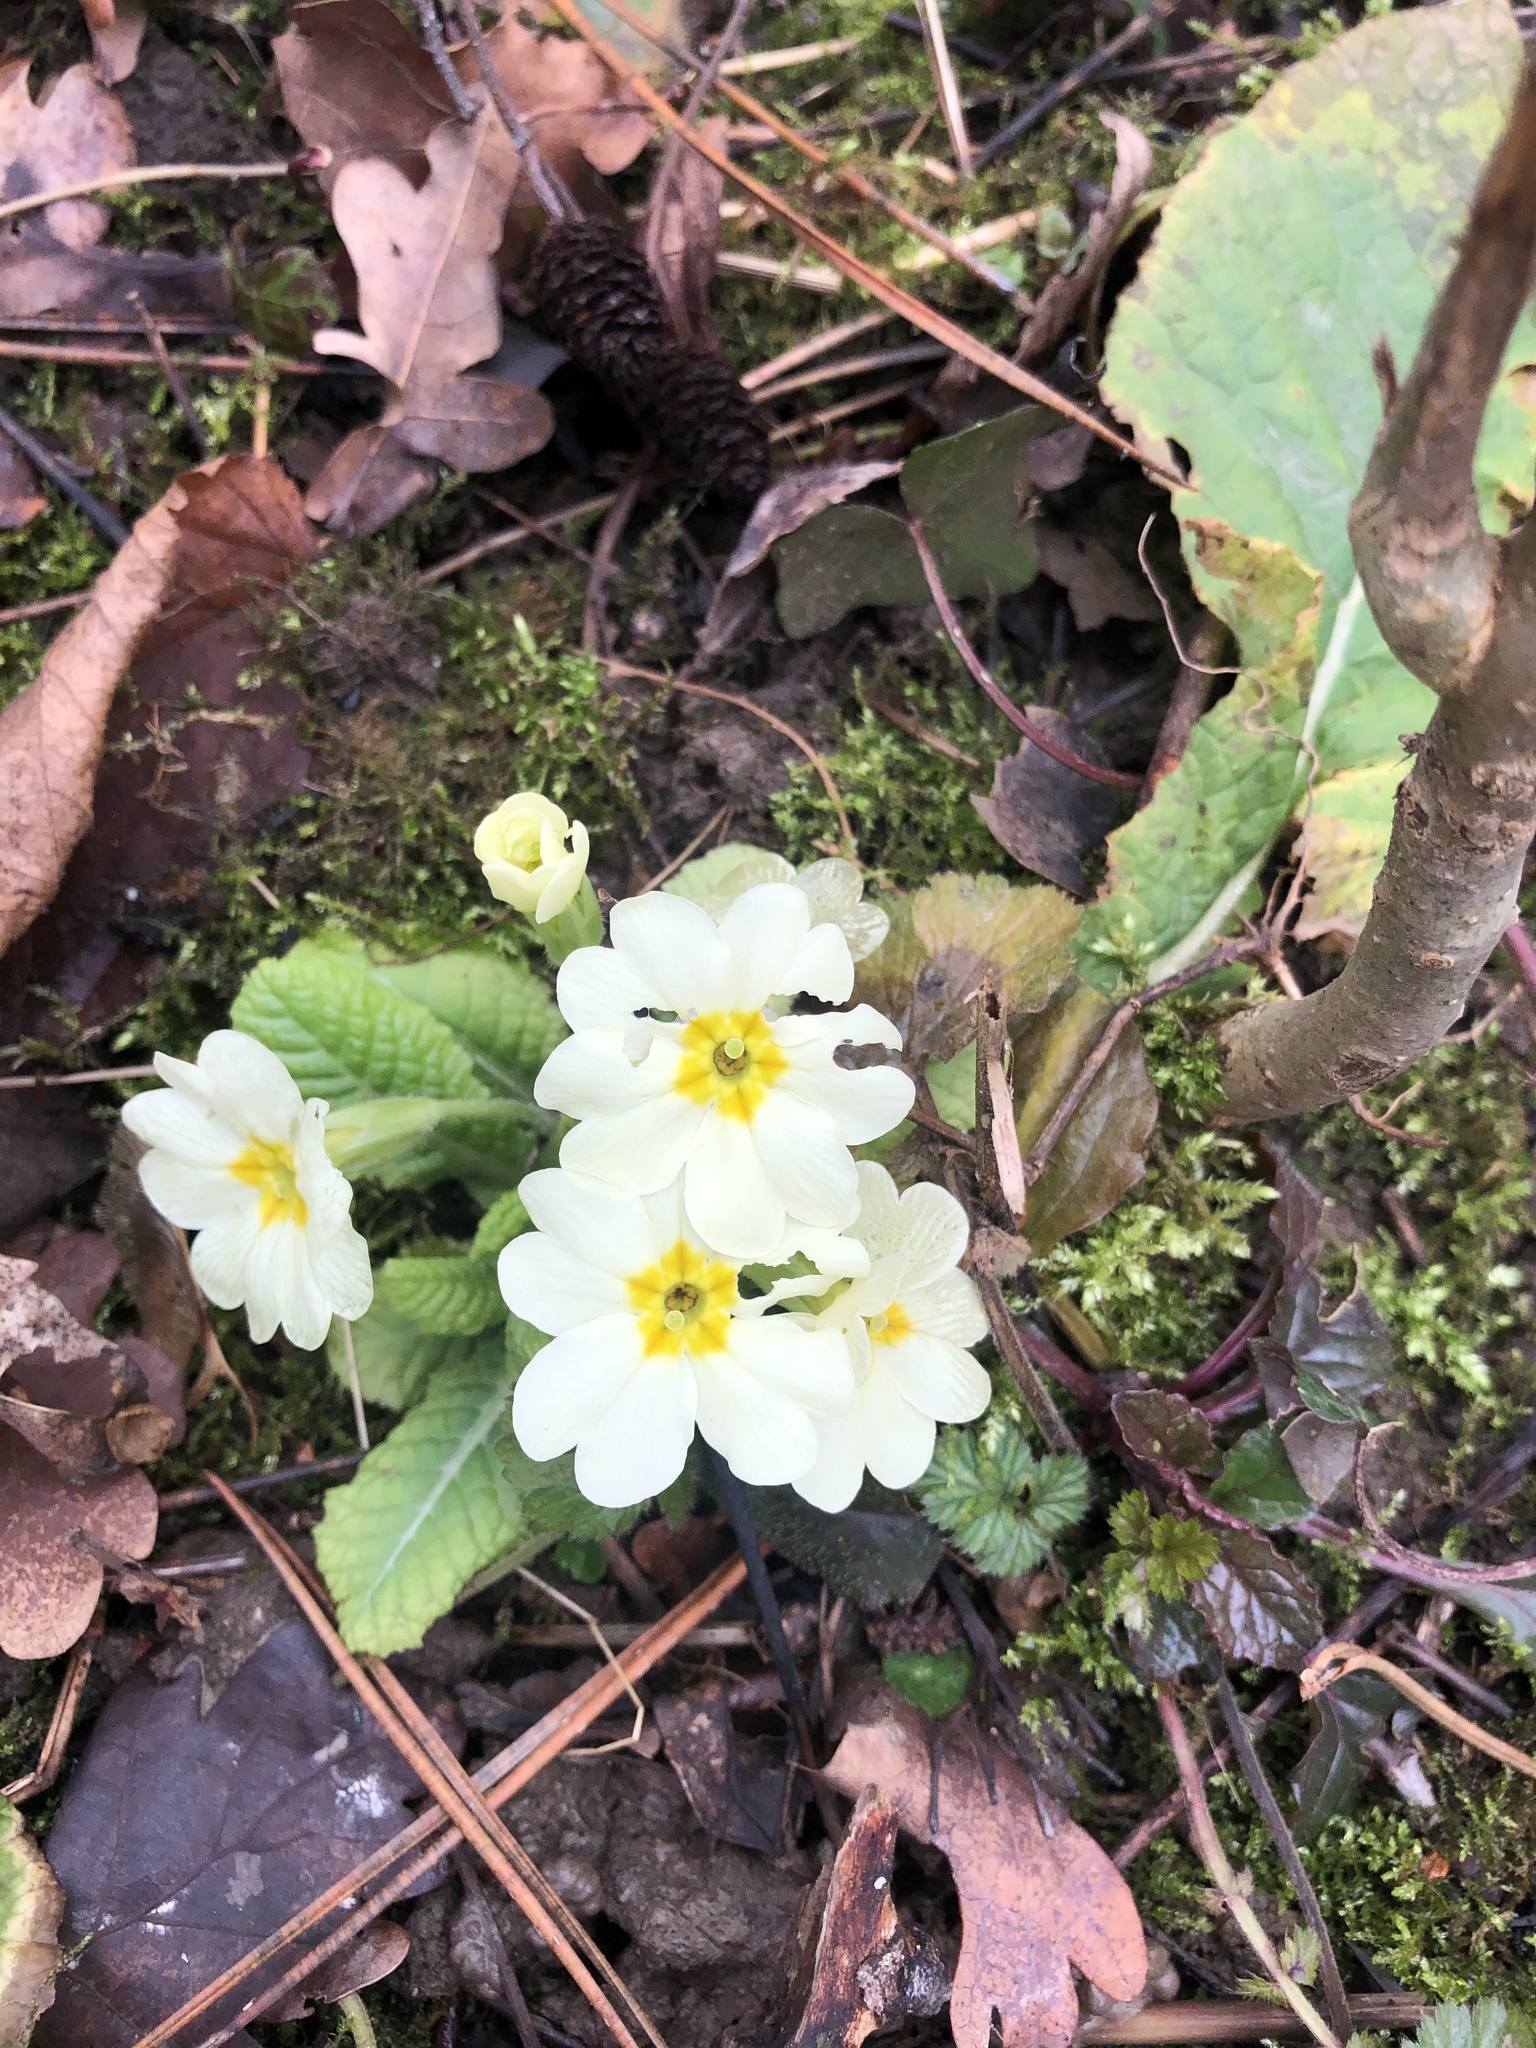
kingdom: Plantae
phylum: Tracheophyta
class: Magnoliopsida
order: Ericales
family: Primulaceae
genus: Primula
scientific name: Primula vulgaris
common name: Primrose
